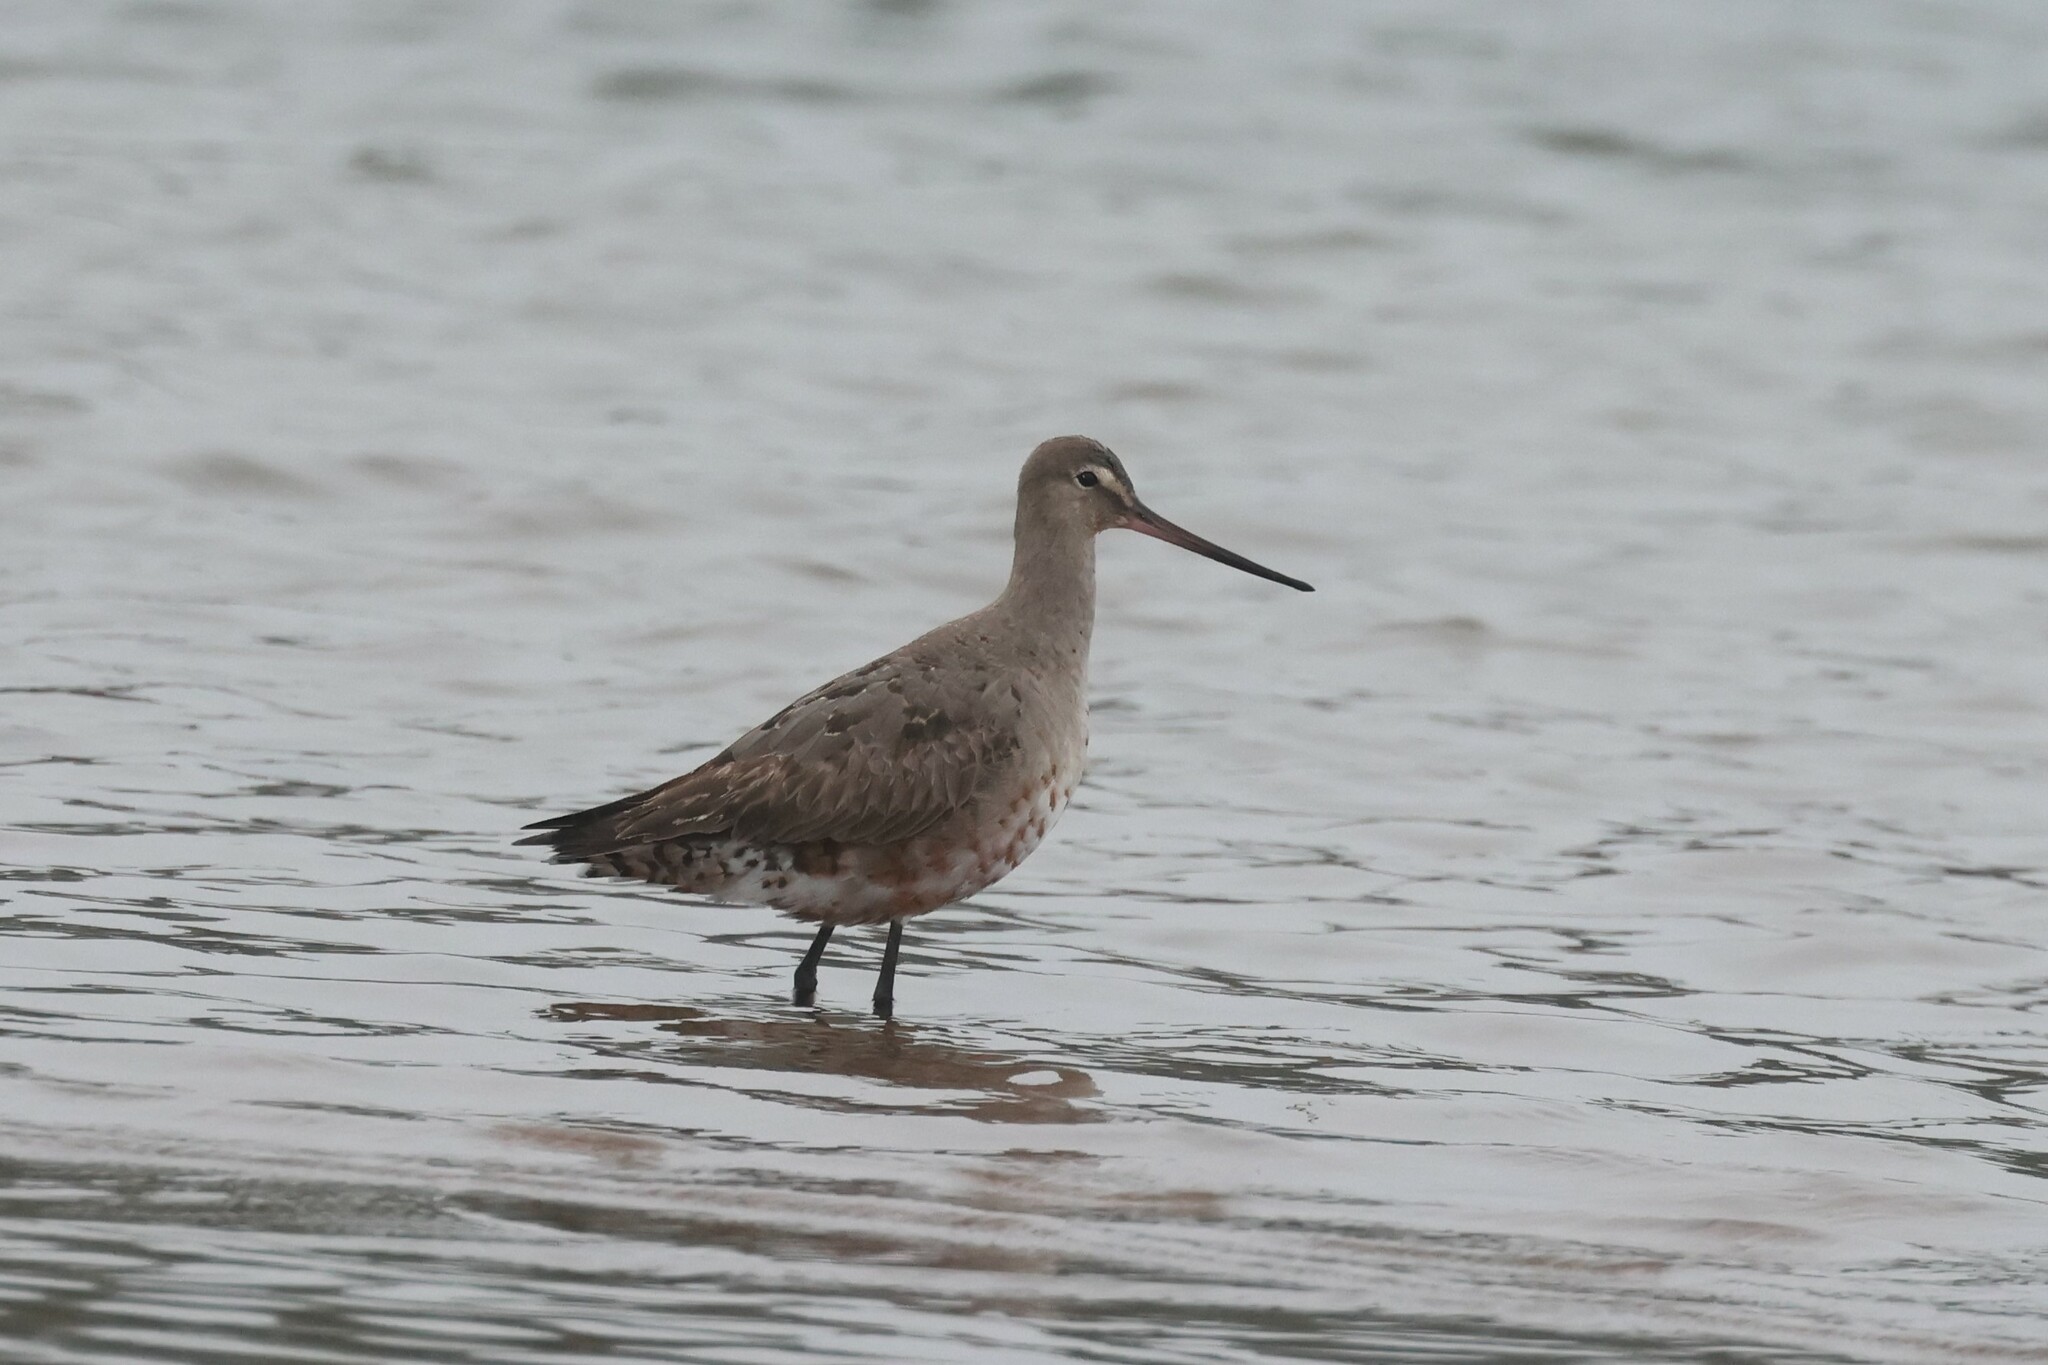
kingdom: Animalia
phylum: Chordata
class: Aves
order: Charadriiformes
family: Scolopacidae
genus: Limosa
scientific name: Limosa haemastica
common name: Hudsonian godwit
